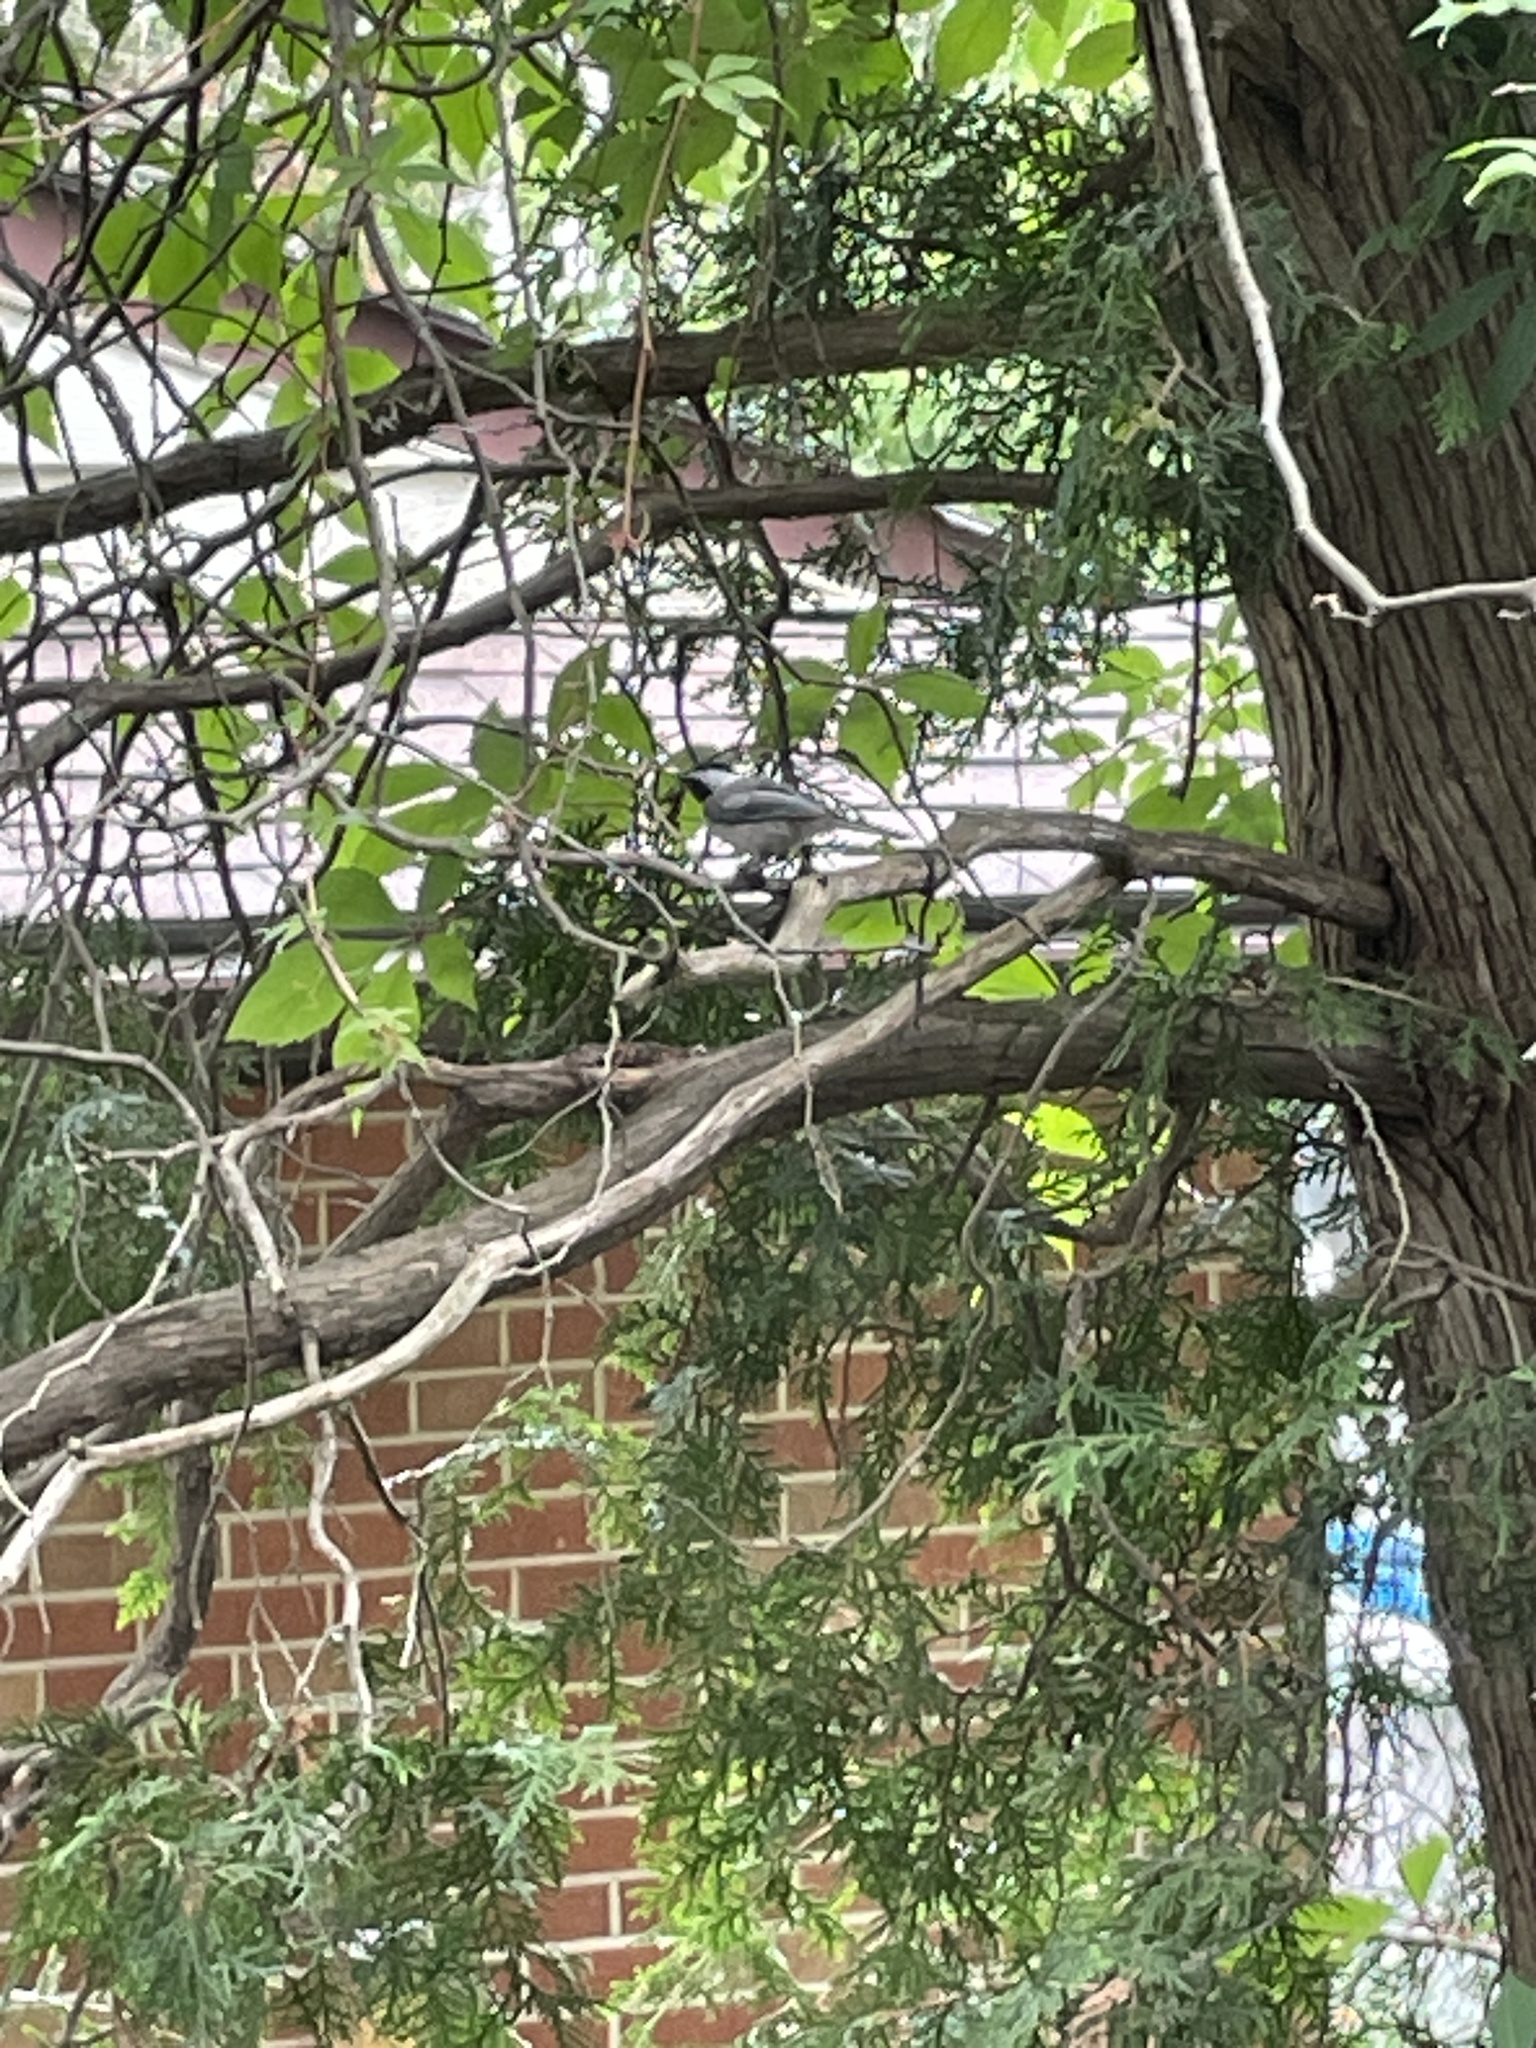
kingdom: Animalia
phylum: Chordata
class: Aves
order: Passeriformes
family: Paridae
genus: Poecile
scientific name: Poecile atricapillus
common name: Black-capped chickadee
